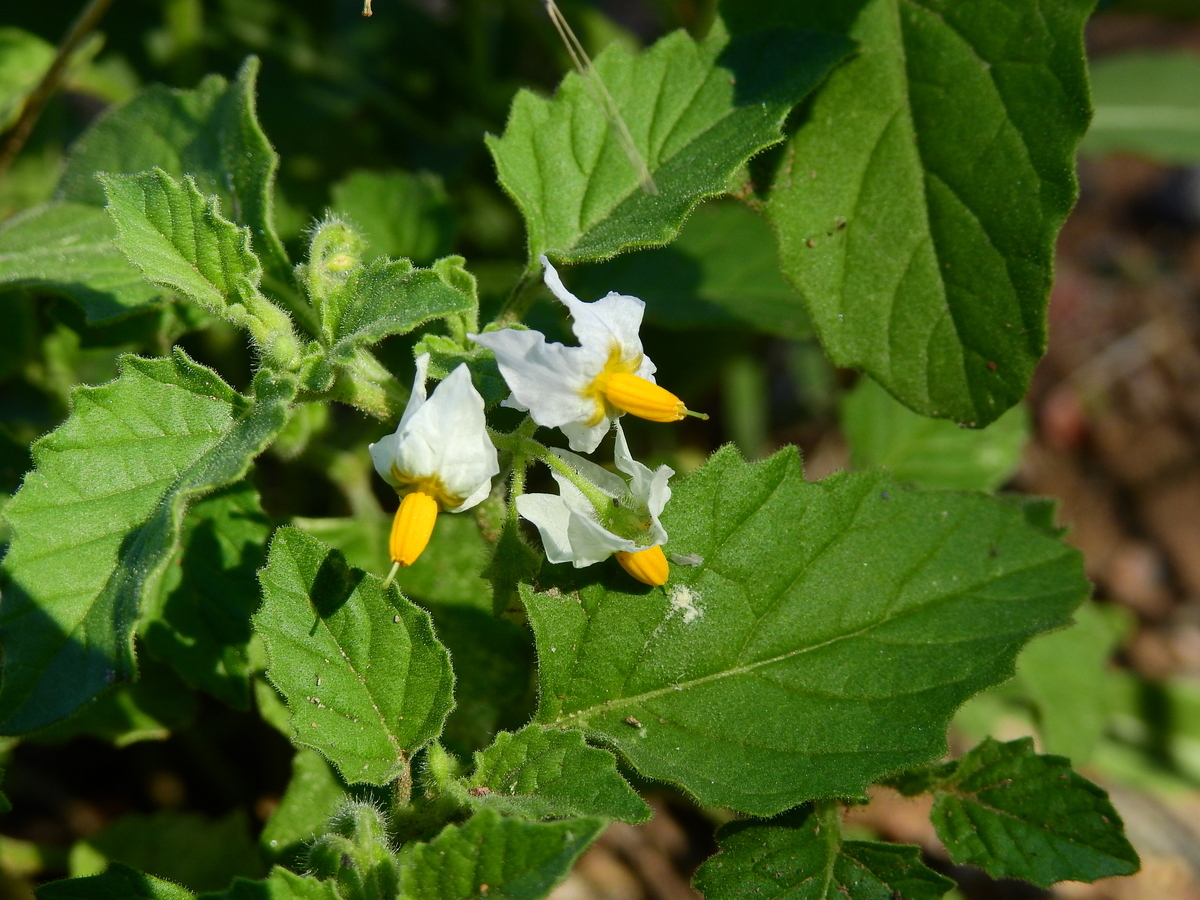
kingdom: Plantae
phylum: Tracheophyta
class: Magnoliopsida
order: Solanales
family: Solanaceae
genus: Solanum
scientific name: Solanum tweedianum
